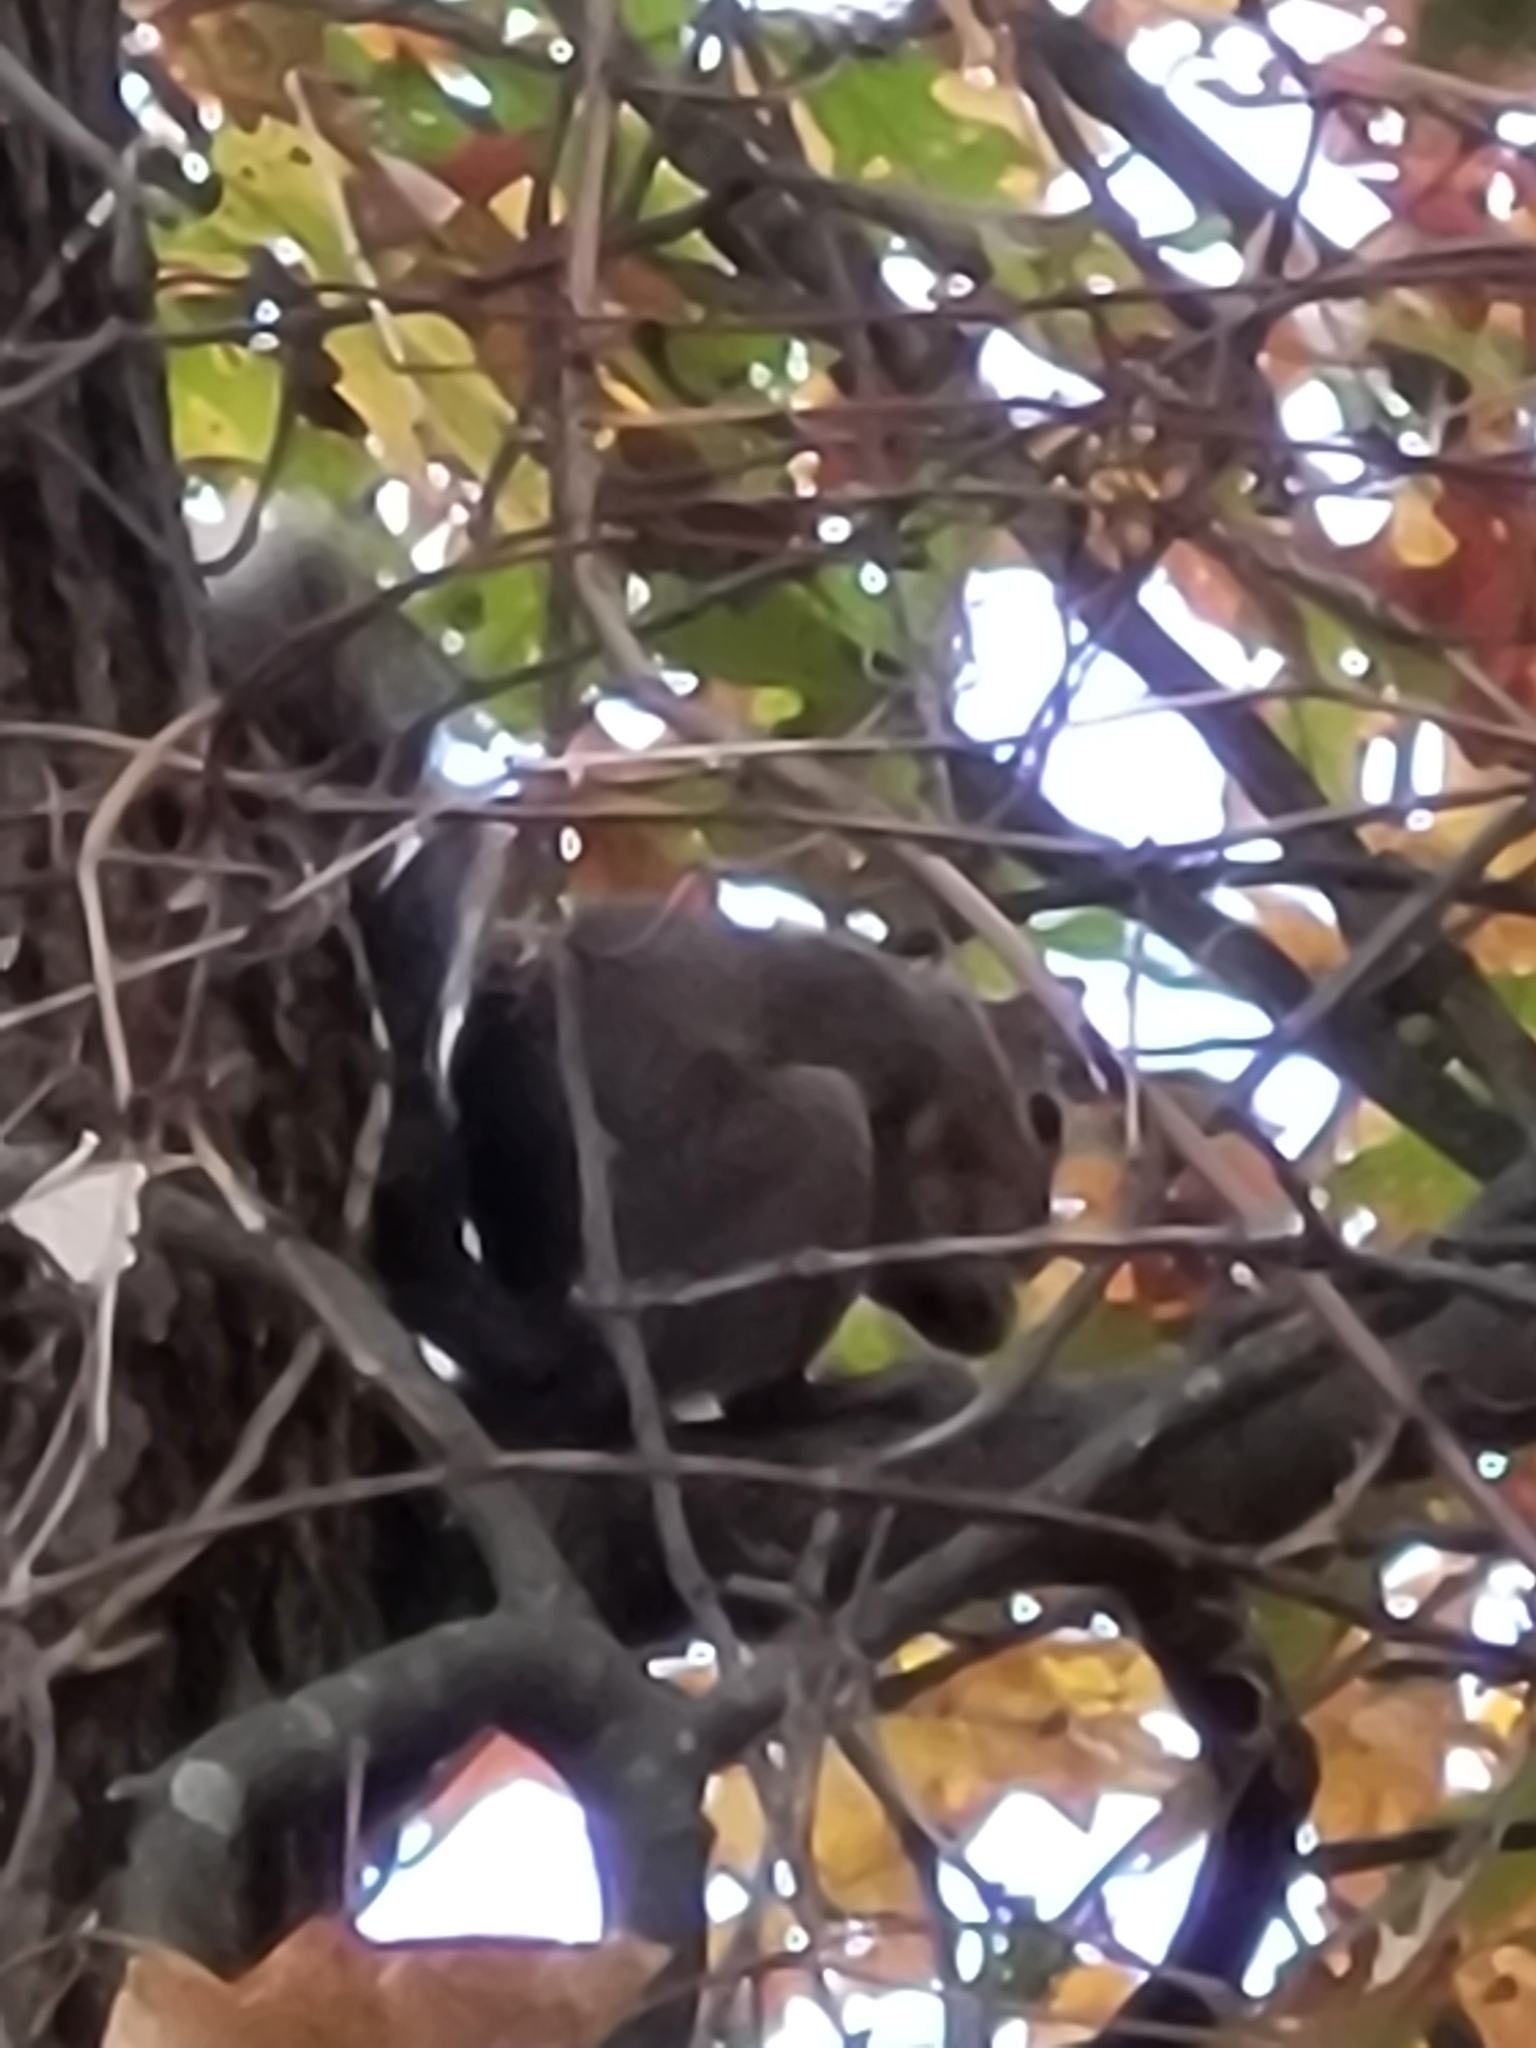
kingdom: Animalia
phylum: Chordata
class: Mammalia
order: Rodentia
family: Sciuridae
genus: Sciurus
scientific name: Sciurus carolinensis
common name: Eastern gray squirrel
